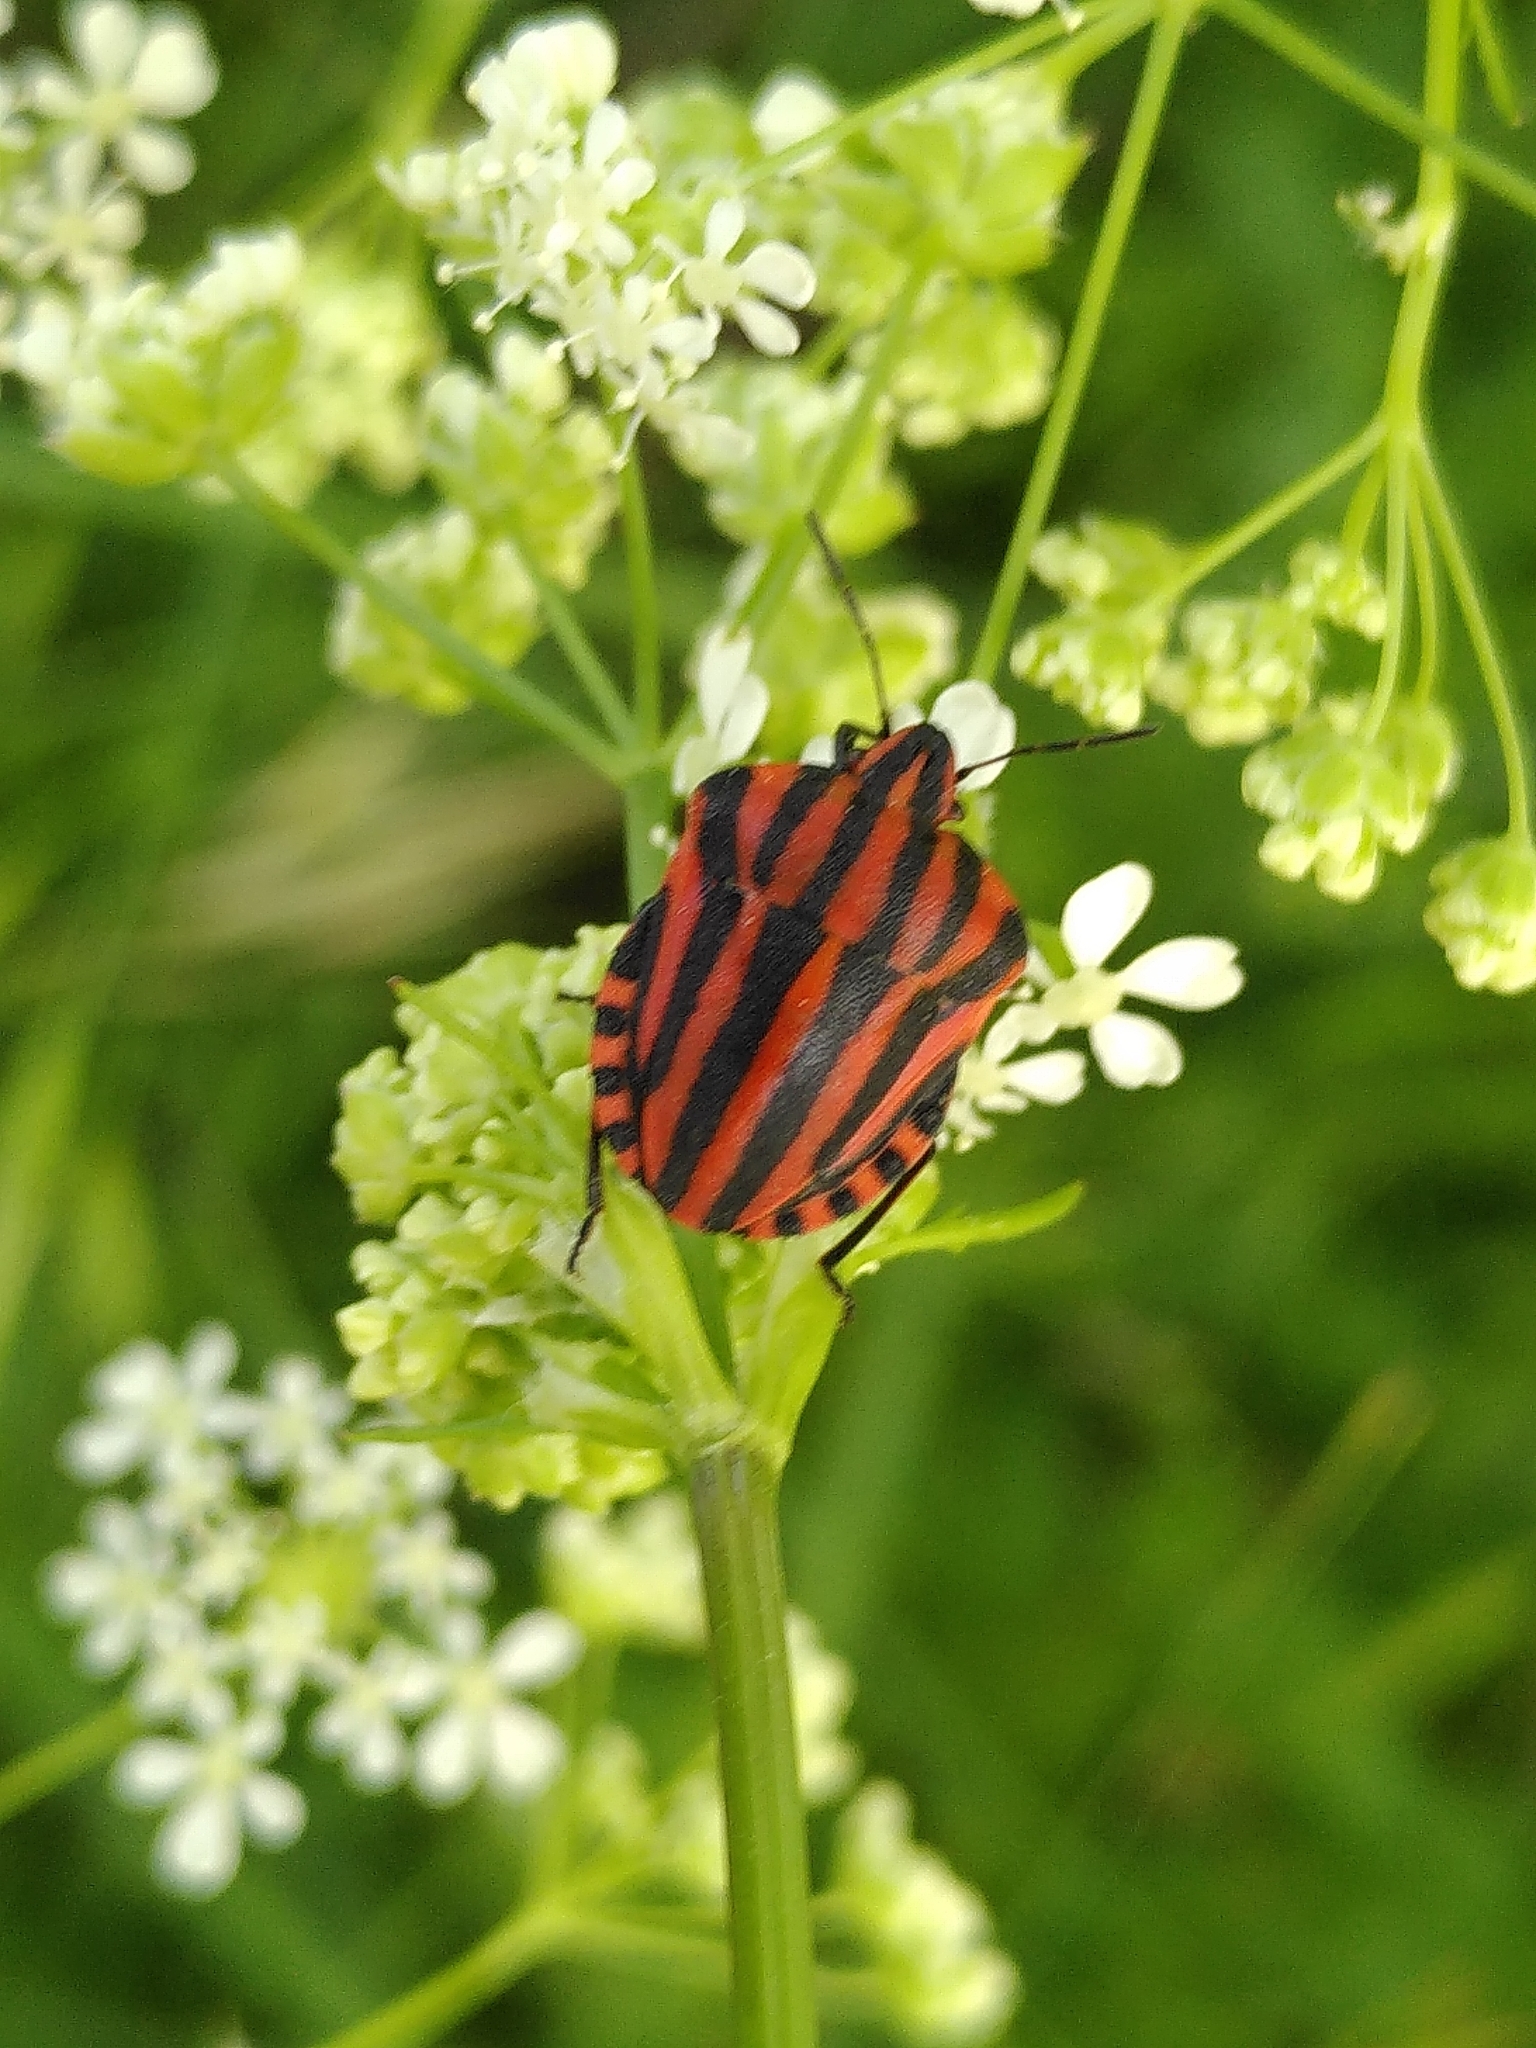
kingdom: Animalia
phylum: Arthropoda
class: Insecta
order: Hemiptera
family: Pentatomidae
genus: Graphosoma
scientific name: Graphosoma italicum
